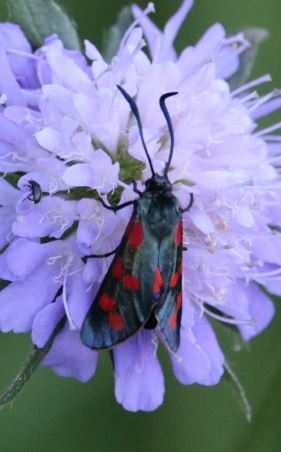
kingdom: Animalia
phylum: Arthropoda
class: Insecta
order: Lepidoptera
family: Zygaenidae
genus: Zygaena
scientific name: Zygaena filipendulae
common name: Six-spot burnet
